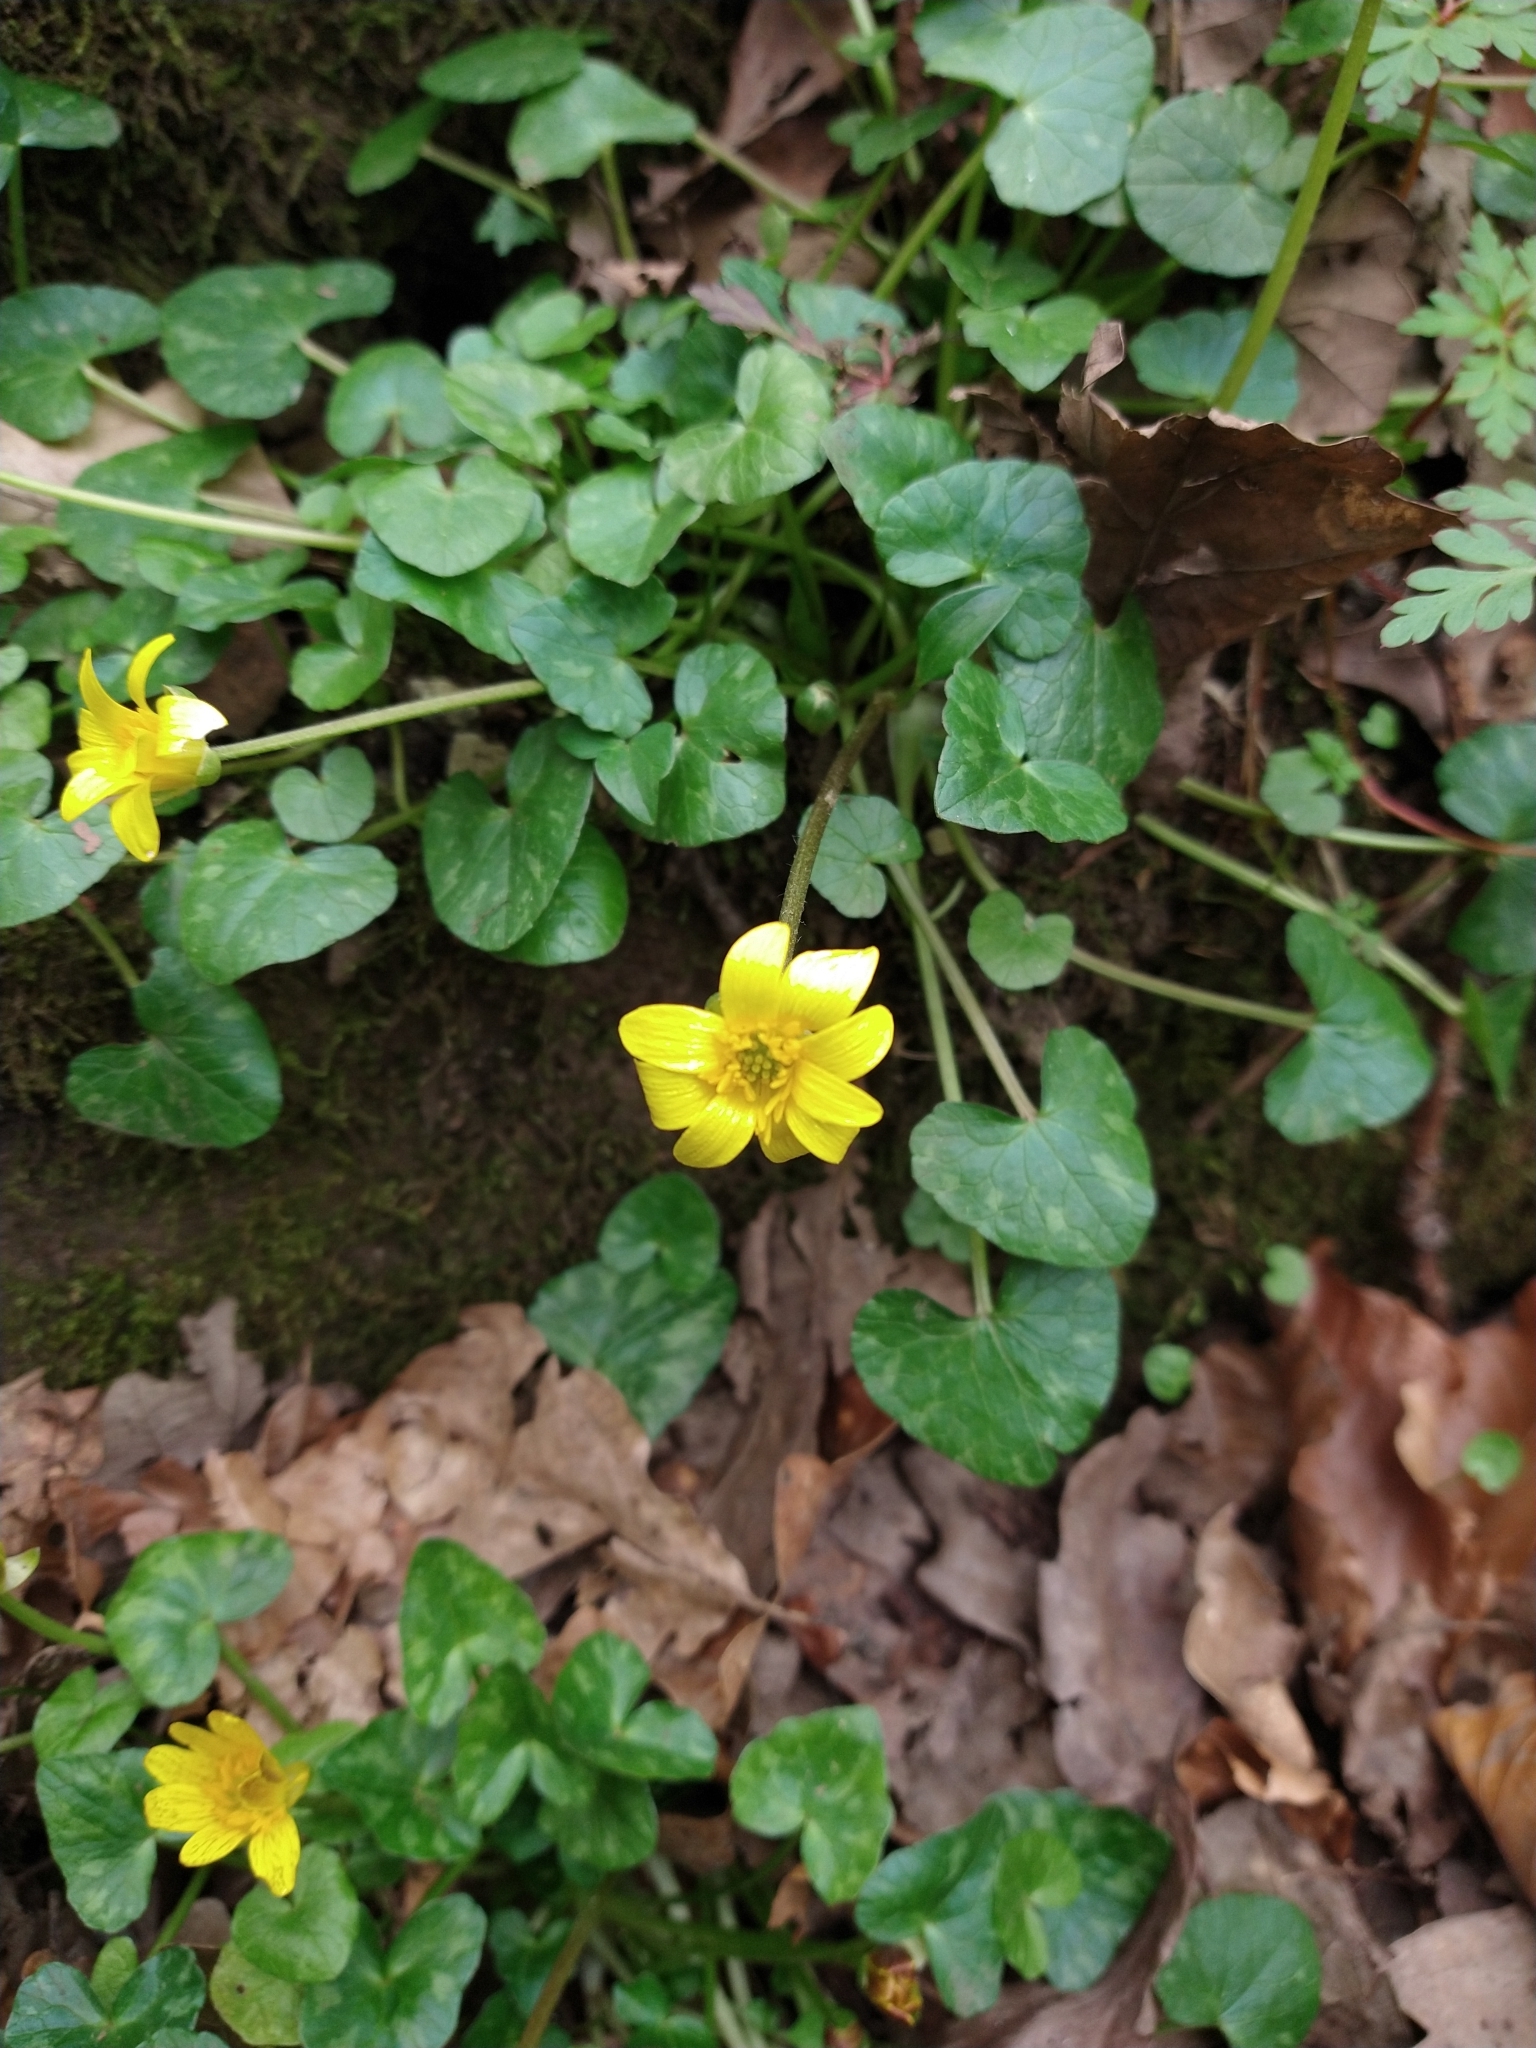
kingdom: Plantae
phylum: Tracheophyta
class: Magnoliopsida
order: Ranunculales
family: Ranunculaceae
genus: Ficaria
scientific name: Ficaria verna
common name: Lesser celandine
